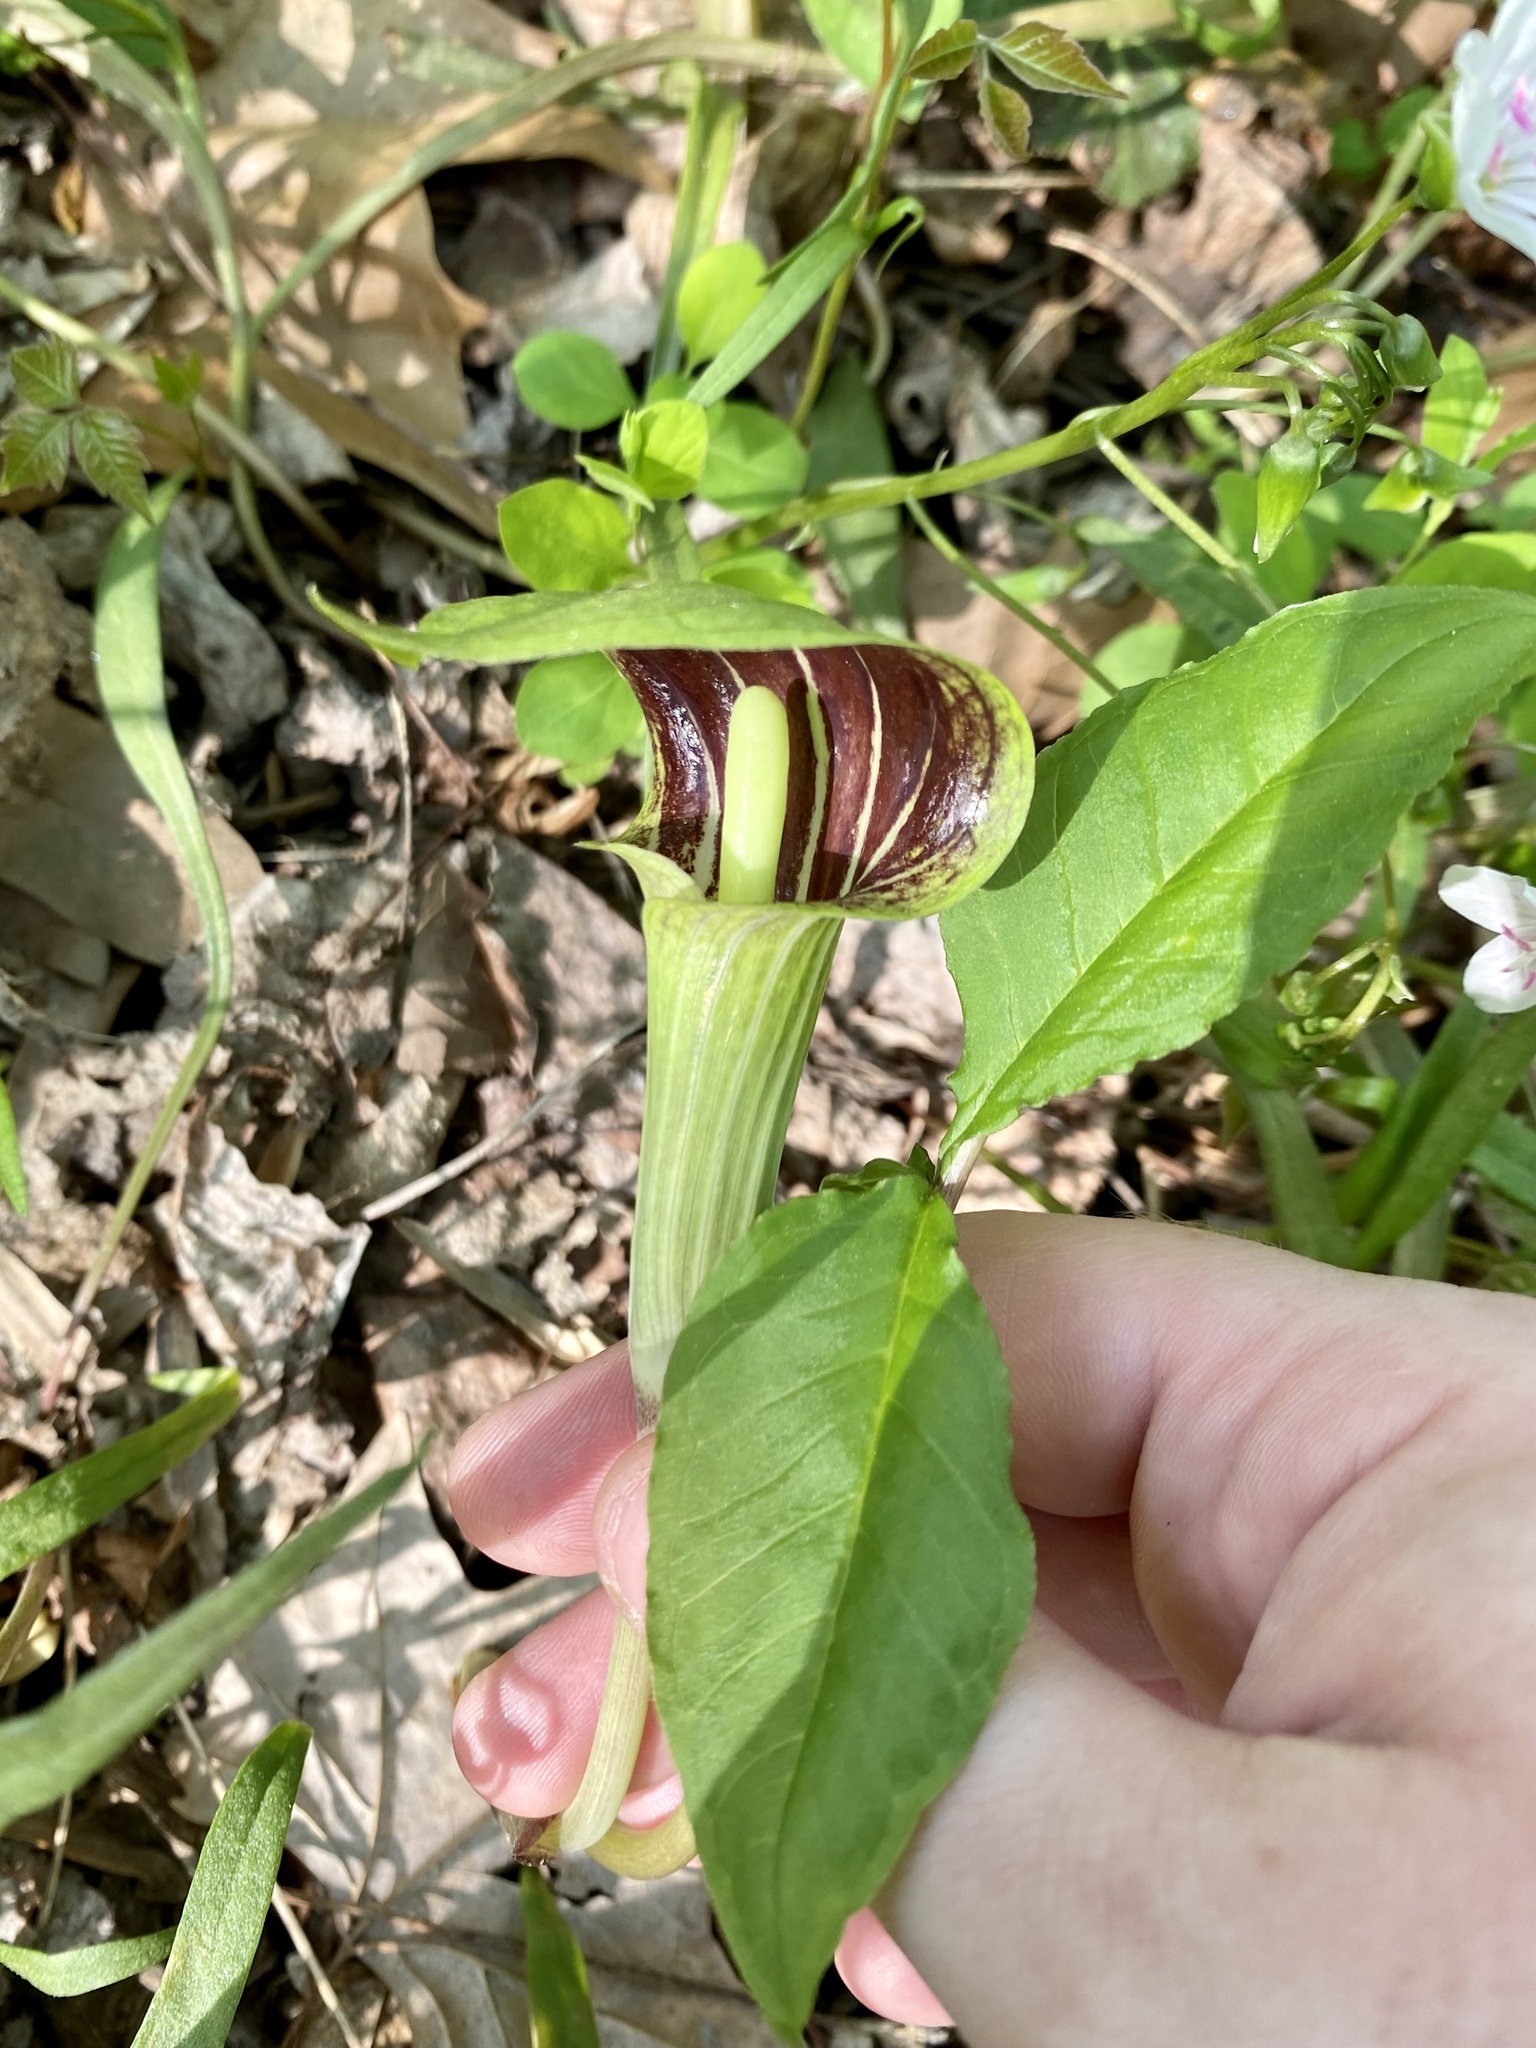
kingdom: Plantae
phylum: Tracheophyta
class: Liliopsida
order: Alismatales
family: Araceae
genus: Arisaema
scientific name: Arisaema triphyllum
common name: Jack-in-the-pulpit
